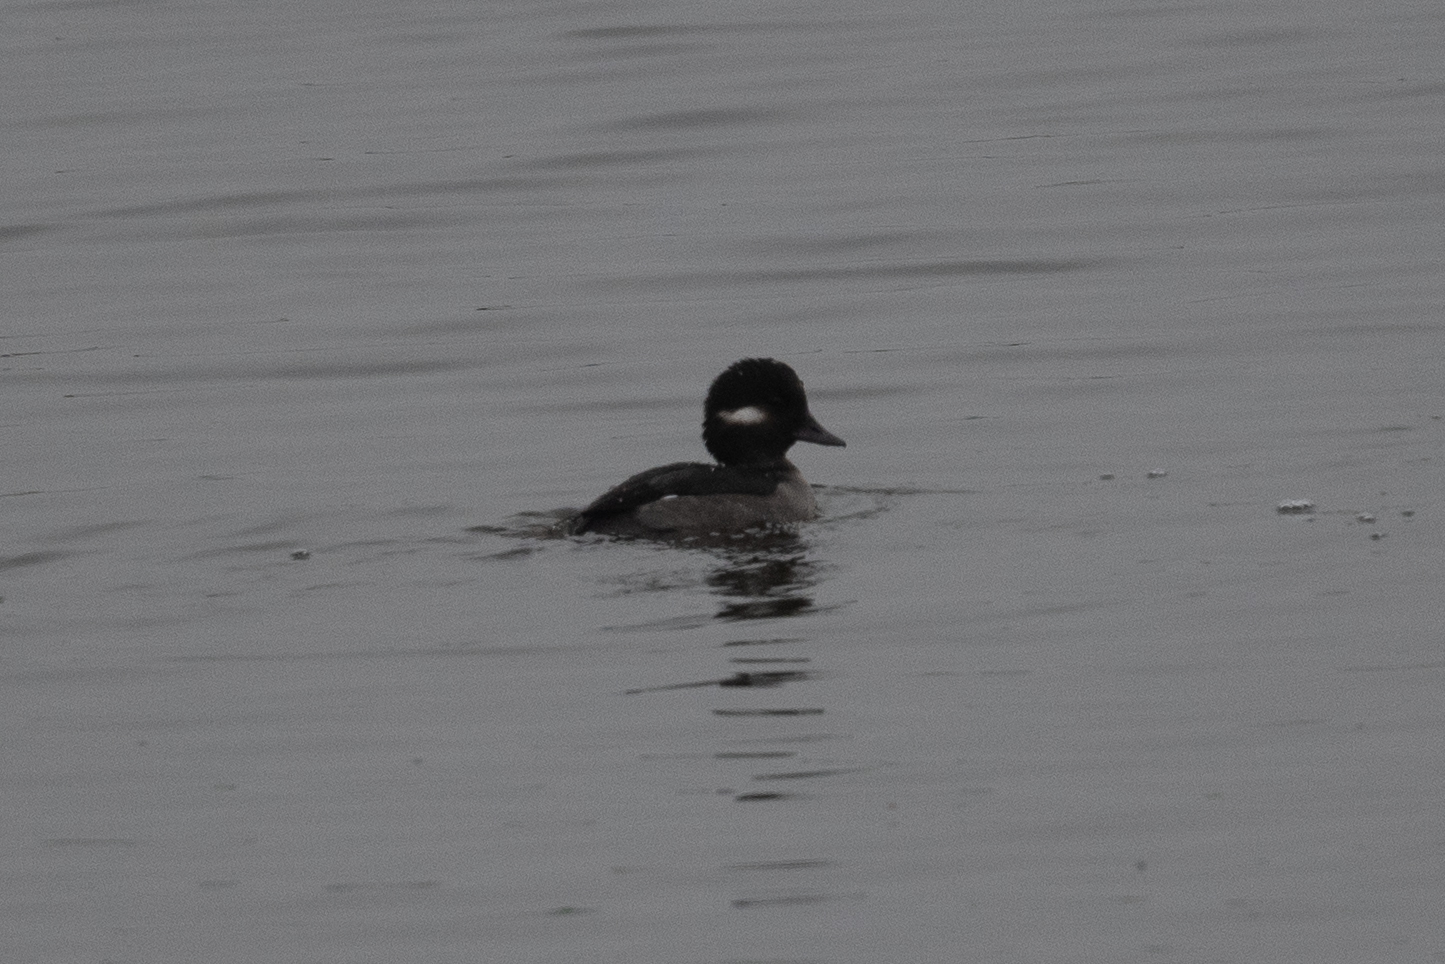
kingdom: Animalia
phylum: Chordata
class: Aves
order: Anseriformes
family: Anatidae
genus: Bucephala
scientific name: Bucephala albeola
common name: Bufflehead
